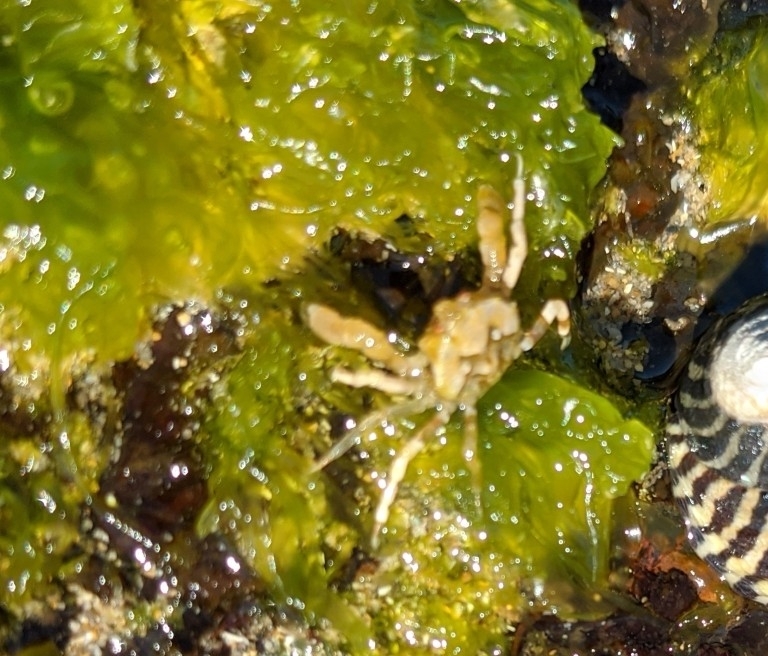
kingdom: Animalia
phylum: Arthropoda
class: Malacostraca
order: Decapoda
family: Hymenosomatidae
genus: Halicarcinus
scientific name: Halicarcinus ovatus
